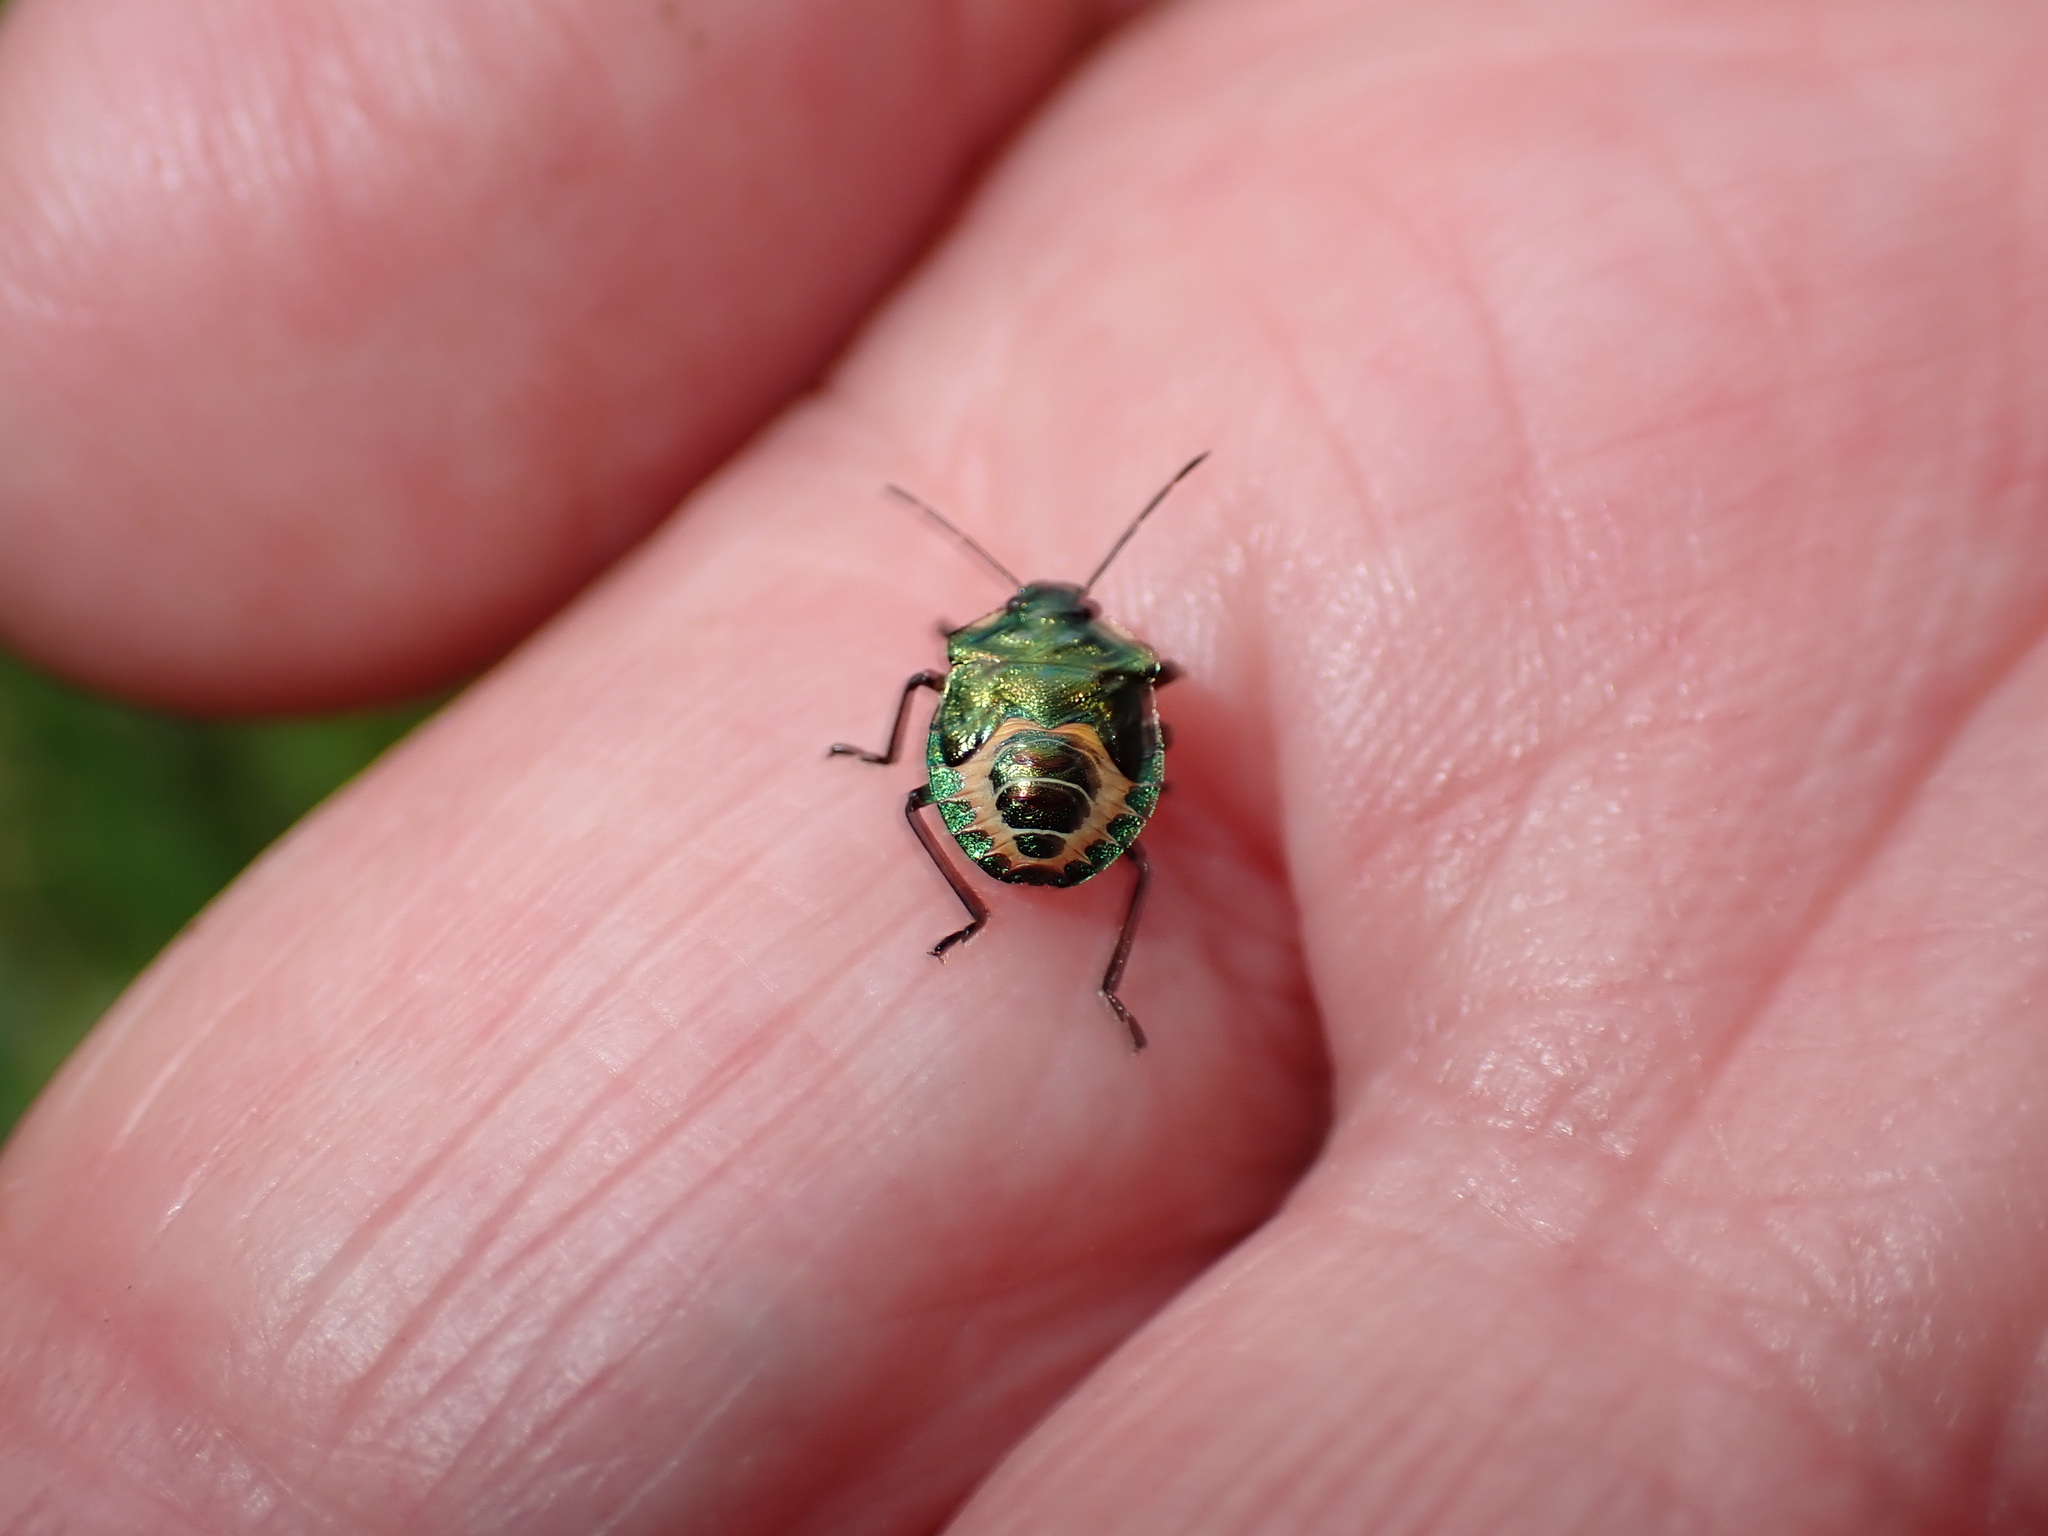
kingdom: Animalia
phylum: Arthropoda
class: Insecta
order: Hemiptera
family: Pentatomidae
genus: Troilus
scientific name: Troilus luridus
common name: Bronze shieldbug
